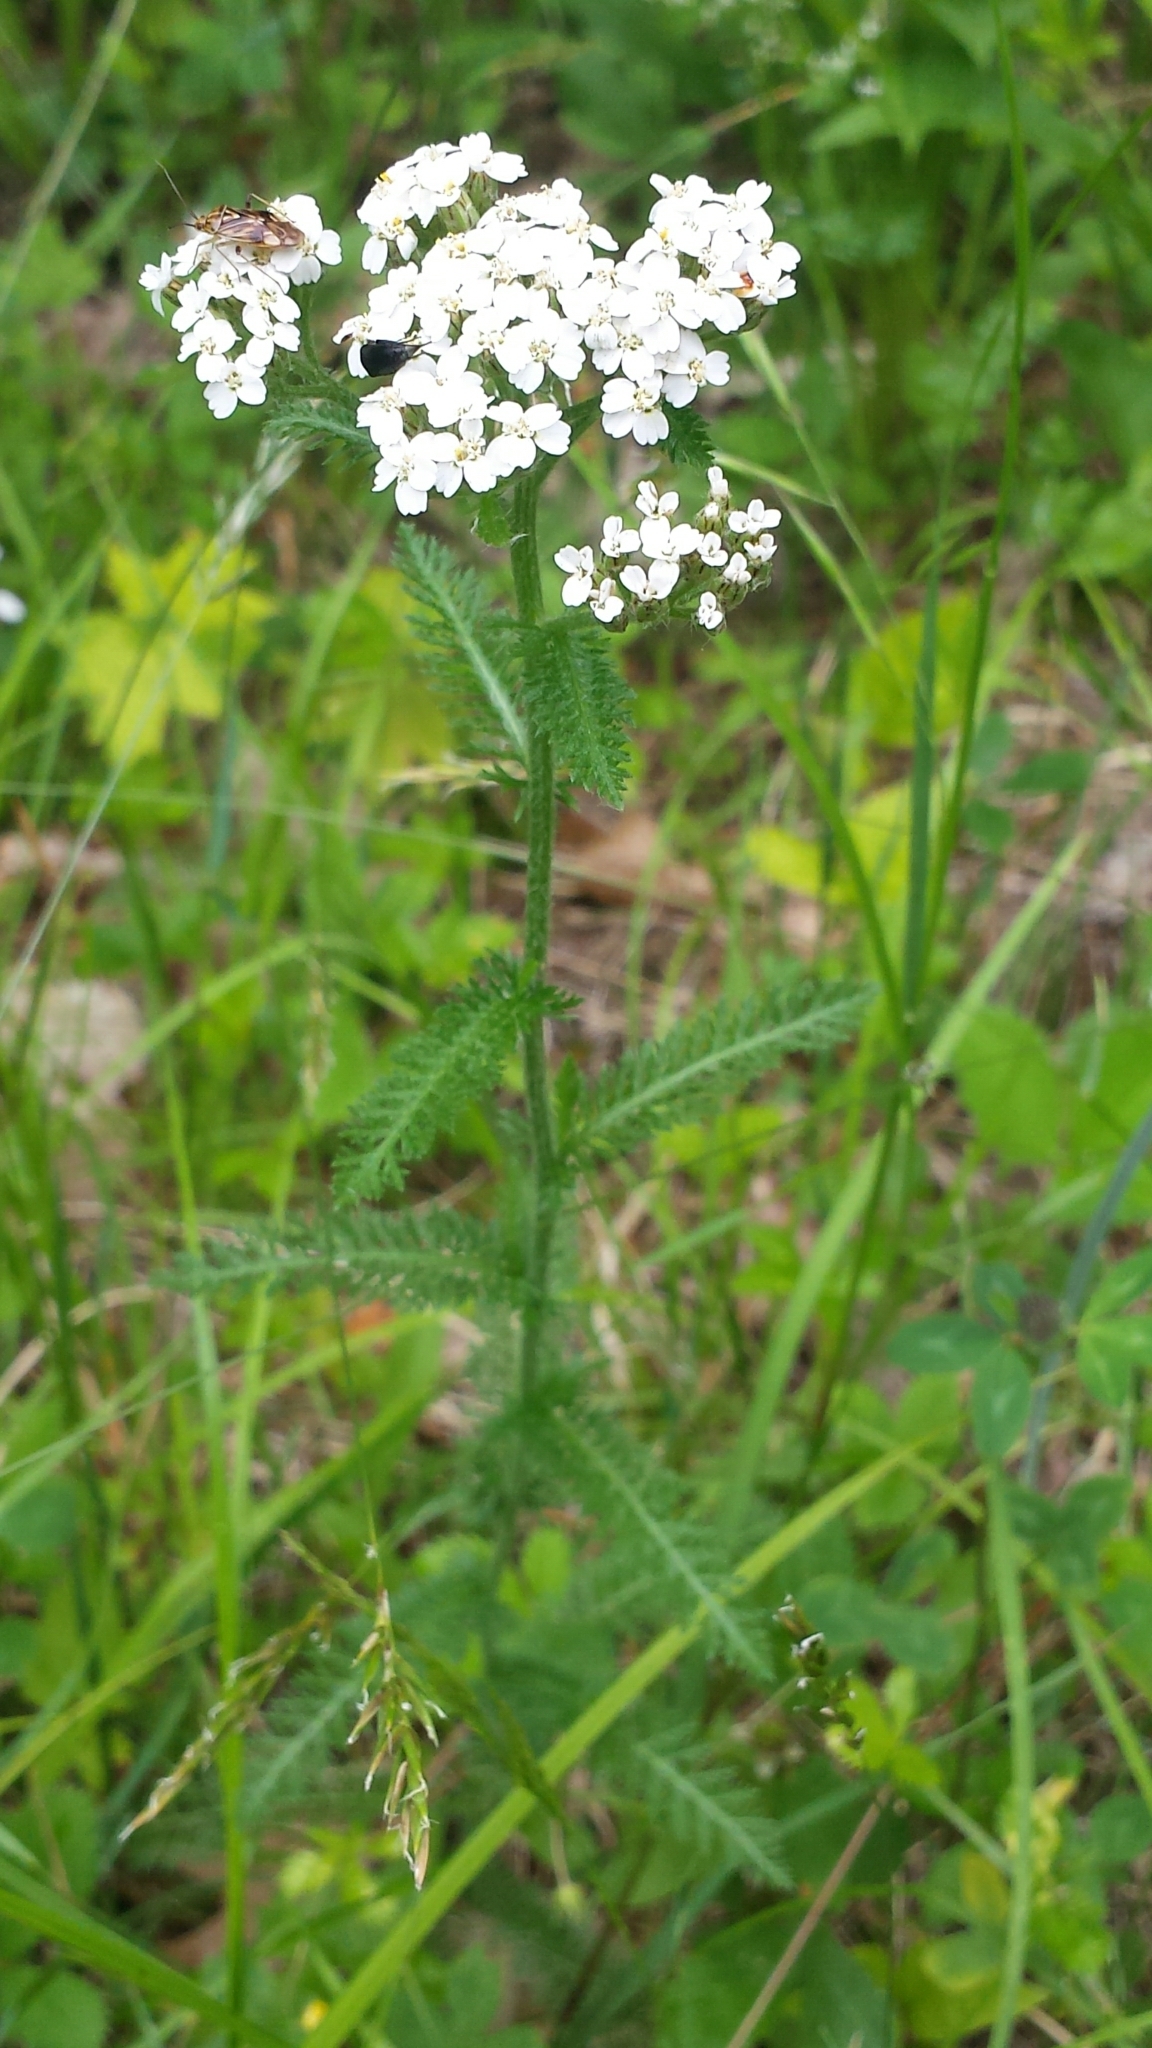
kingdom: Plantae
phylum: Tracheophyta
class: Magnoliopsida
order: Asterales
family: Asteraceae
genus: Achillea
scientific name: Achillea millefolium
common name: Yarrow
